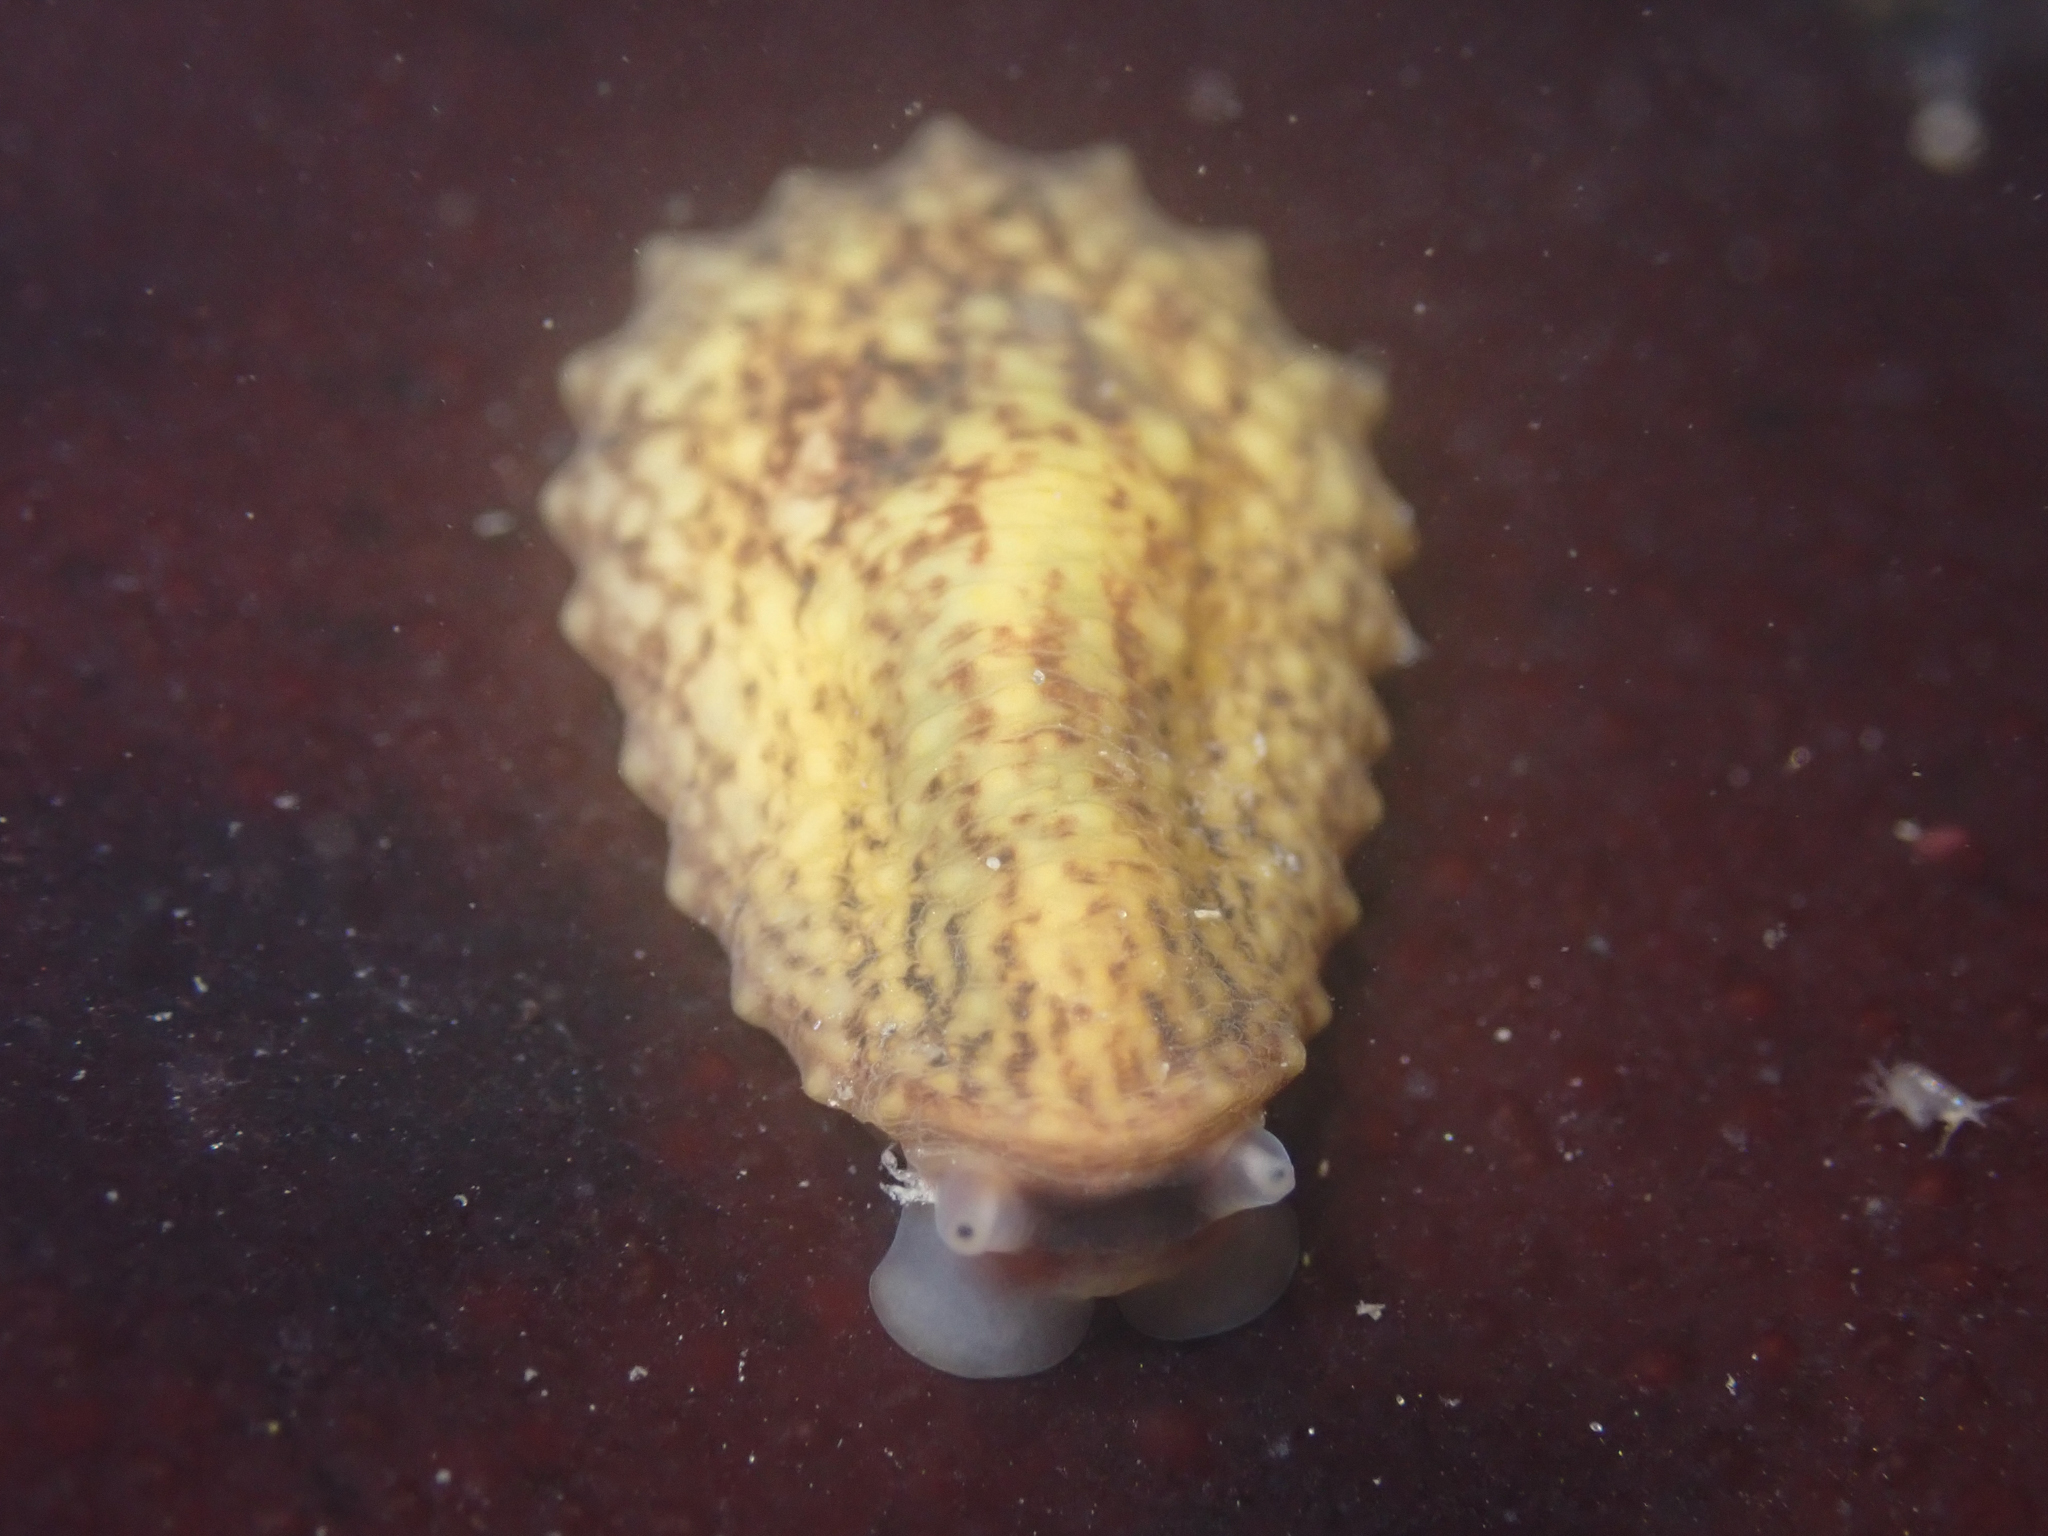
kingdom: Animalia
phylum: Mollusca
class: Gastropoda
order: Systellommatophora
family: Onchidiidae
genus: Onchidella
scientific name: Onchidella carpenteri
